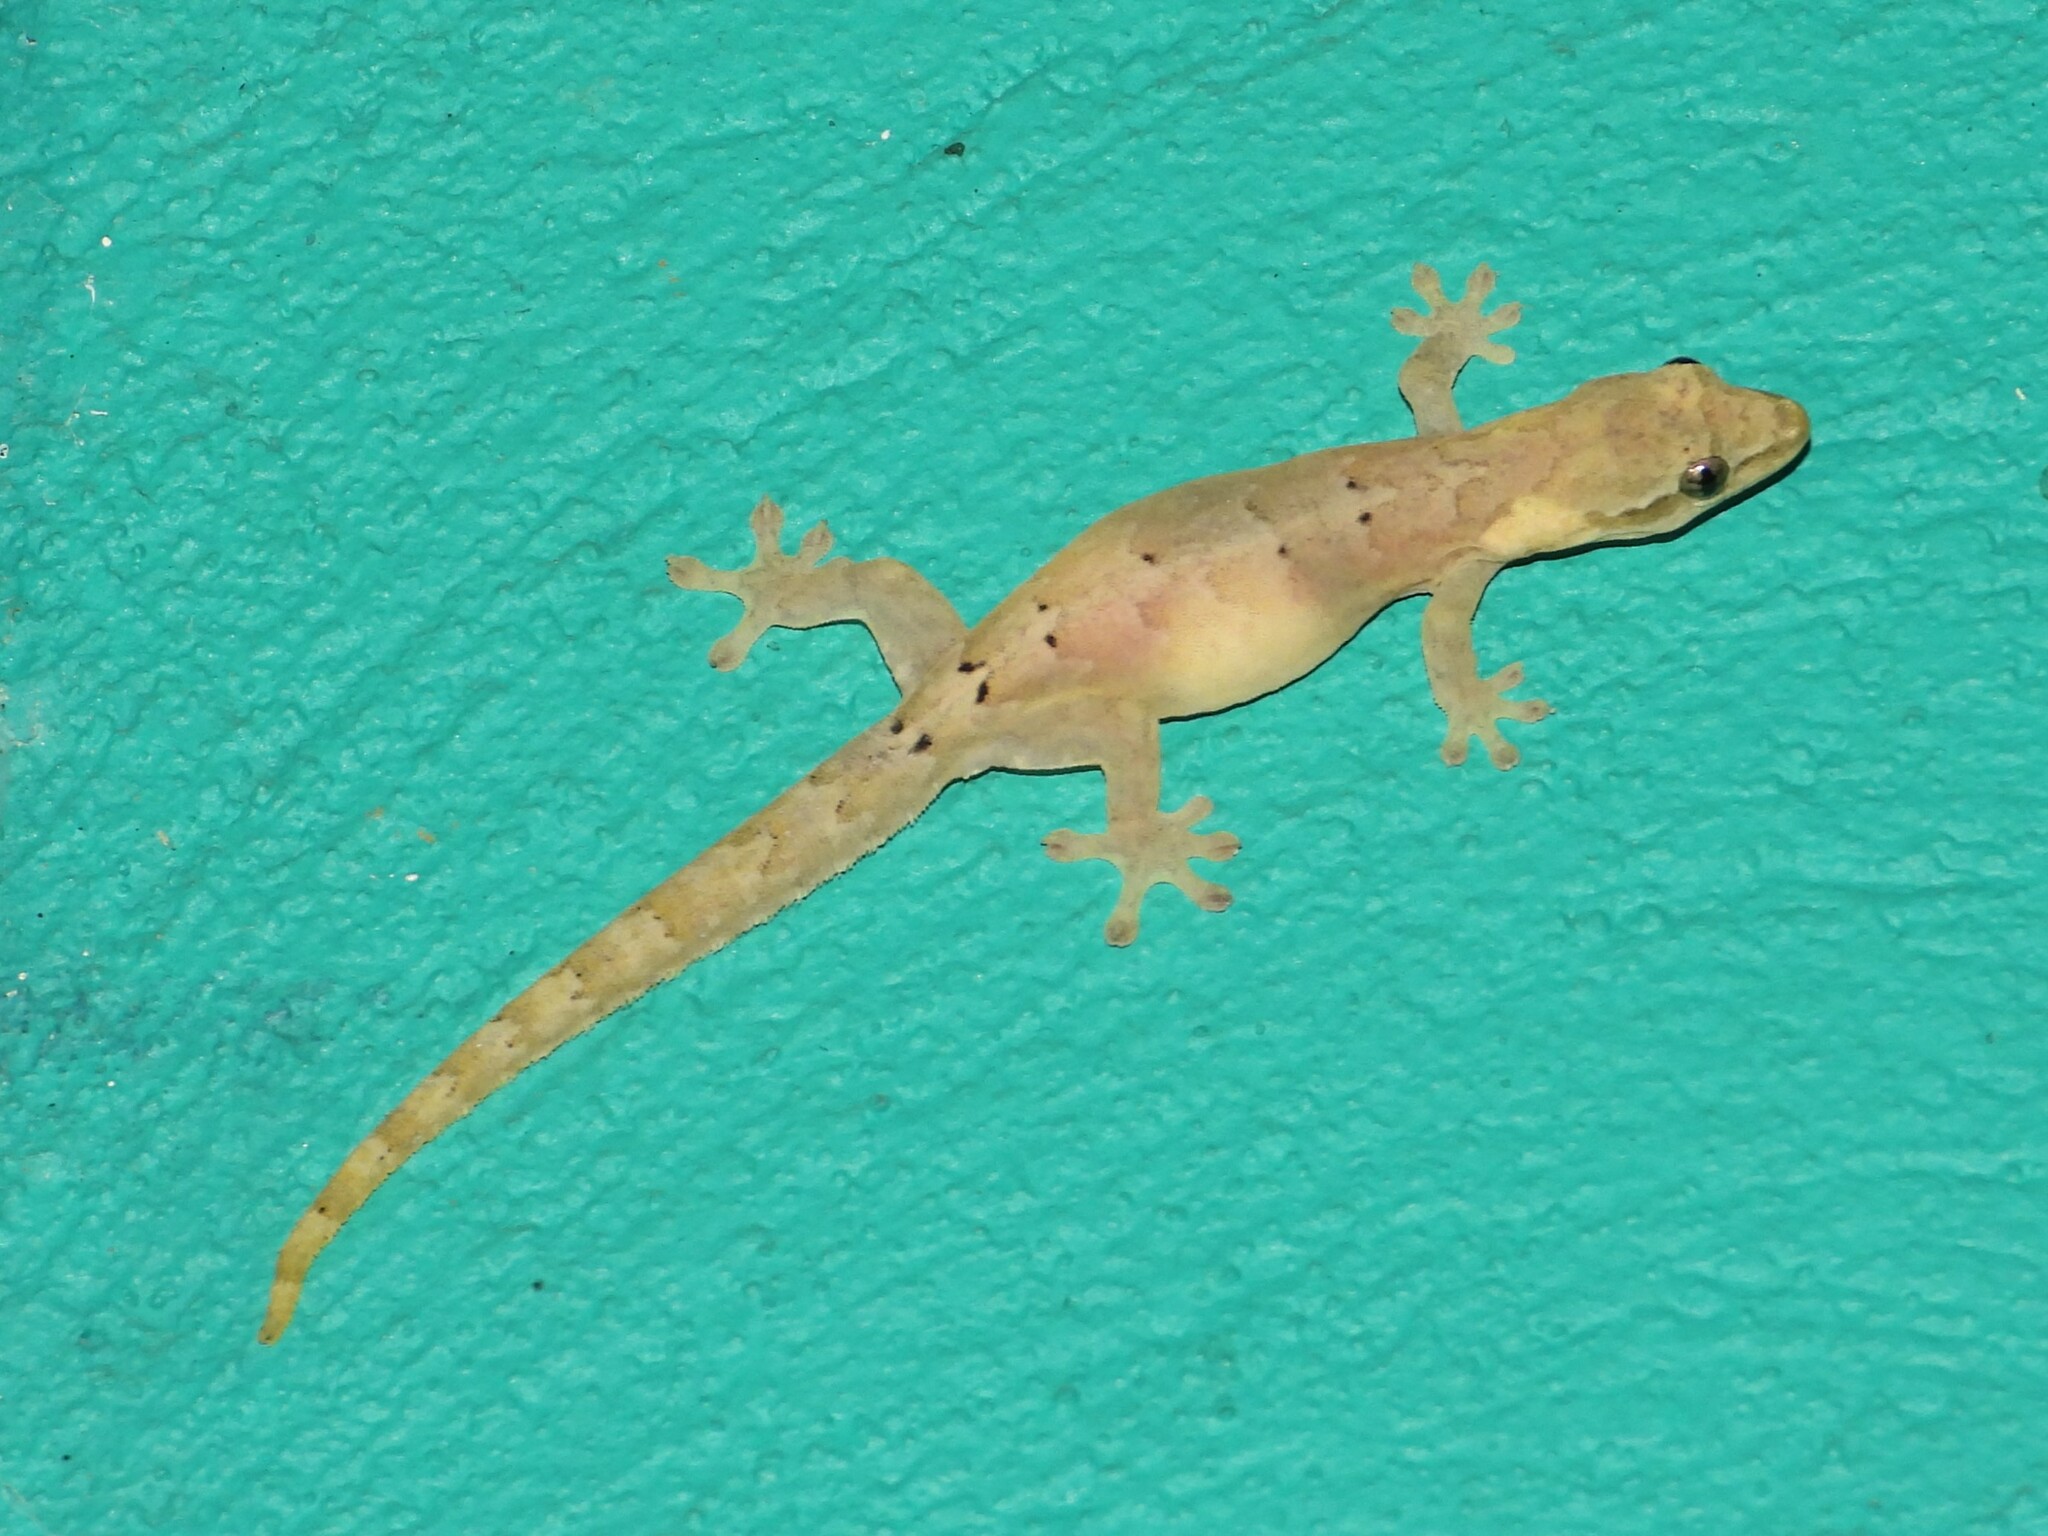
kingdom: Animalia
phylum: Chordata
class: Squamata
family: Gekkonidae
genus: Lepidodactylus
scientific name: Lepidodactylus lugubris
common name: Mourning gecko
